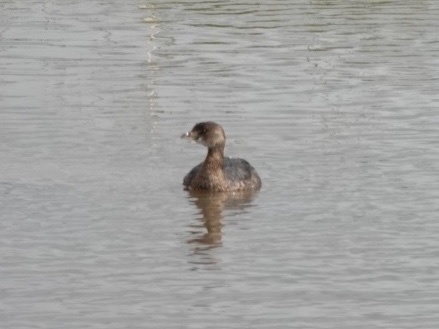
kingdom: Animalia
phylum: Chordata
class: Aves
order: Podicipediformes
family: Podicipedidae
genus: Podilymbus
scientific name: Podilymbus podiceps
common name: Pied-billed grebe
